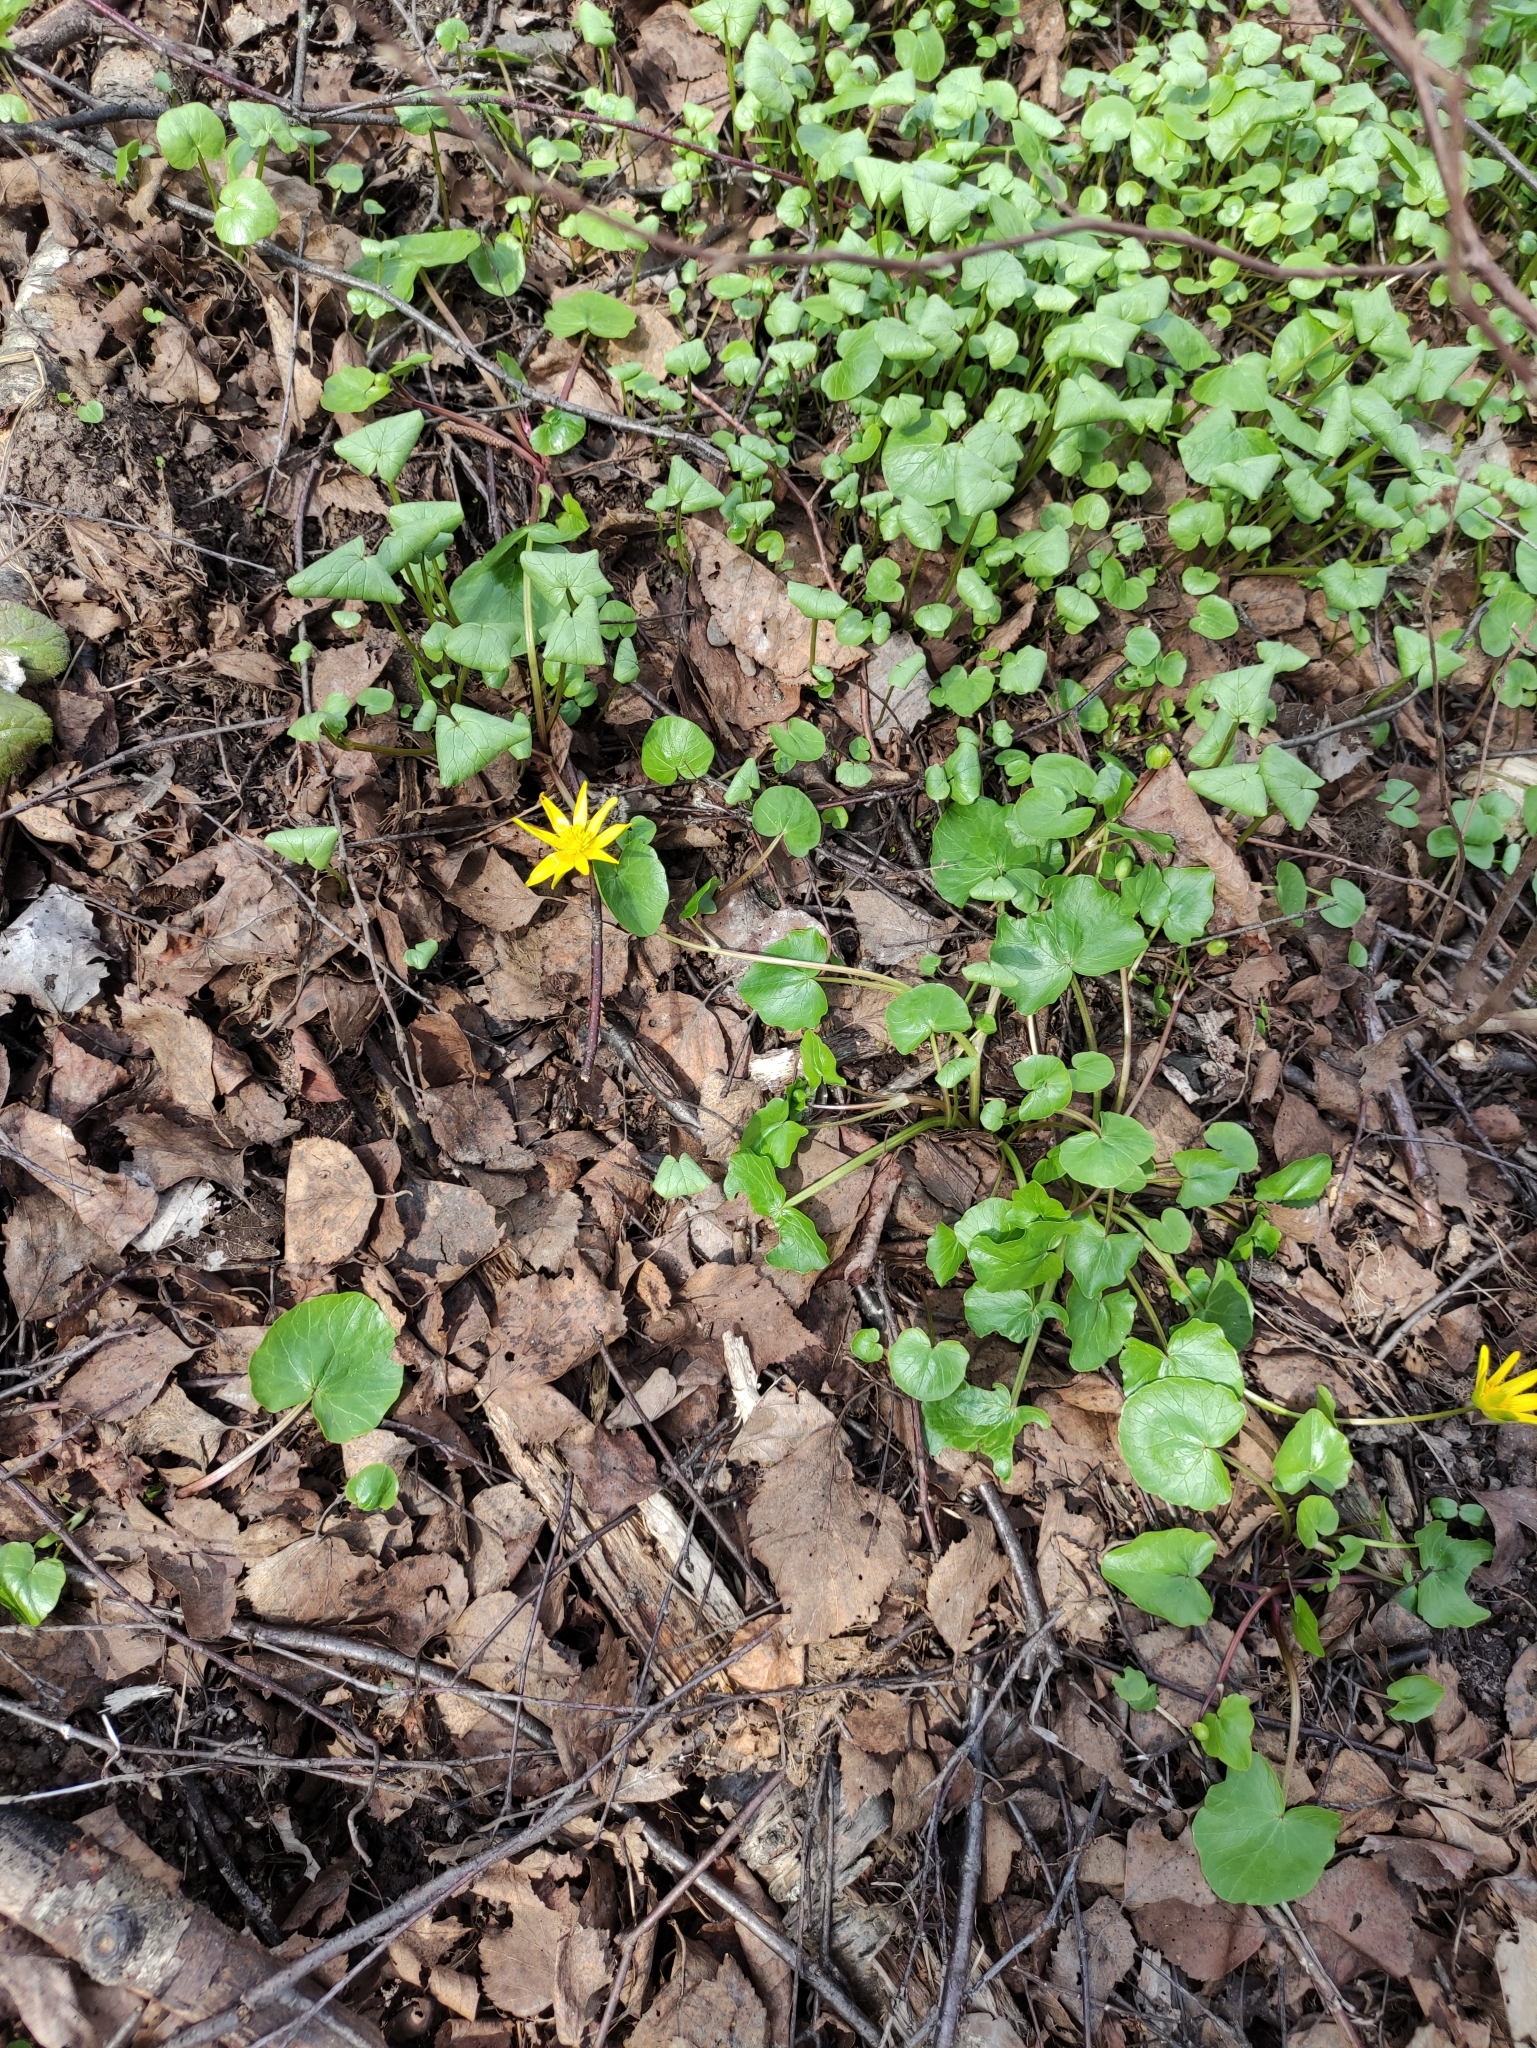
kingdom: Plantae
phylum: Tracheophyta
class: Magnoliopsida
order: Ranunculales
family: Ranunculaceae
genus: Ficaria
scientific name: Ficaria verna
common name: Lesser celandine
